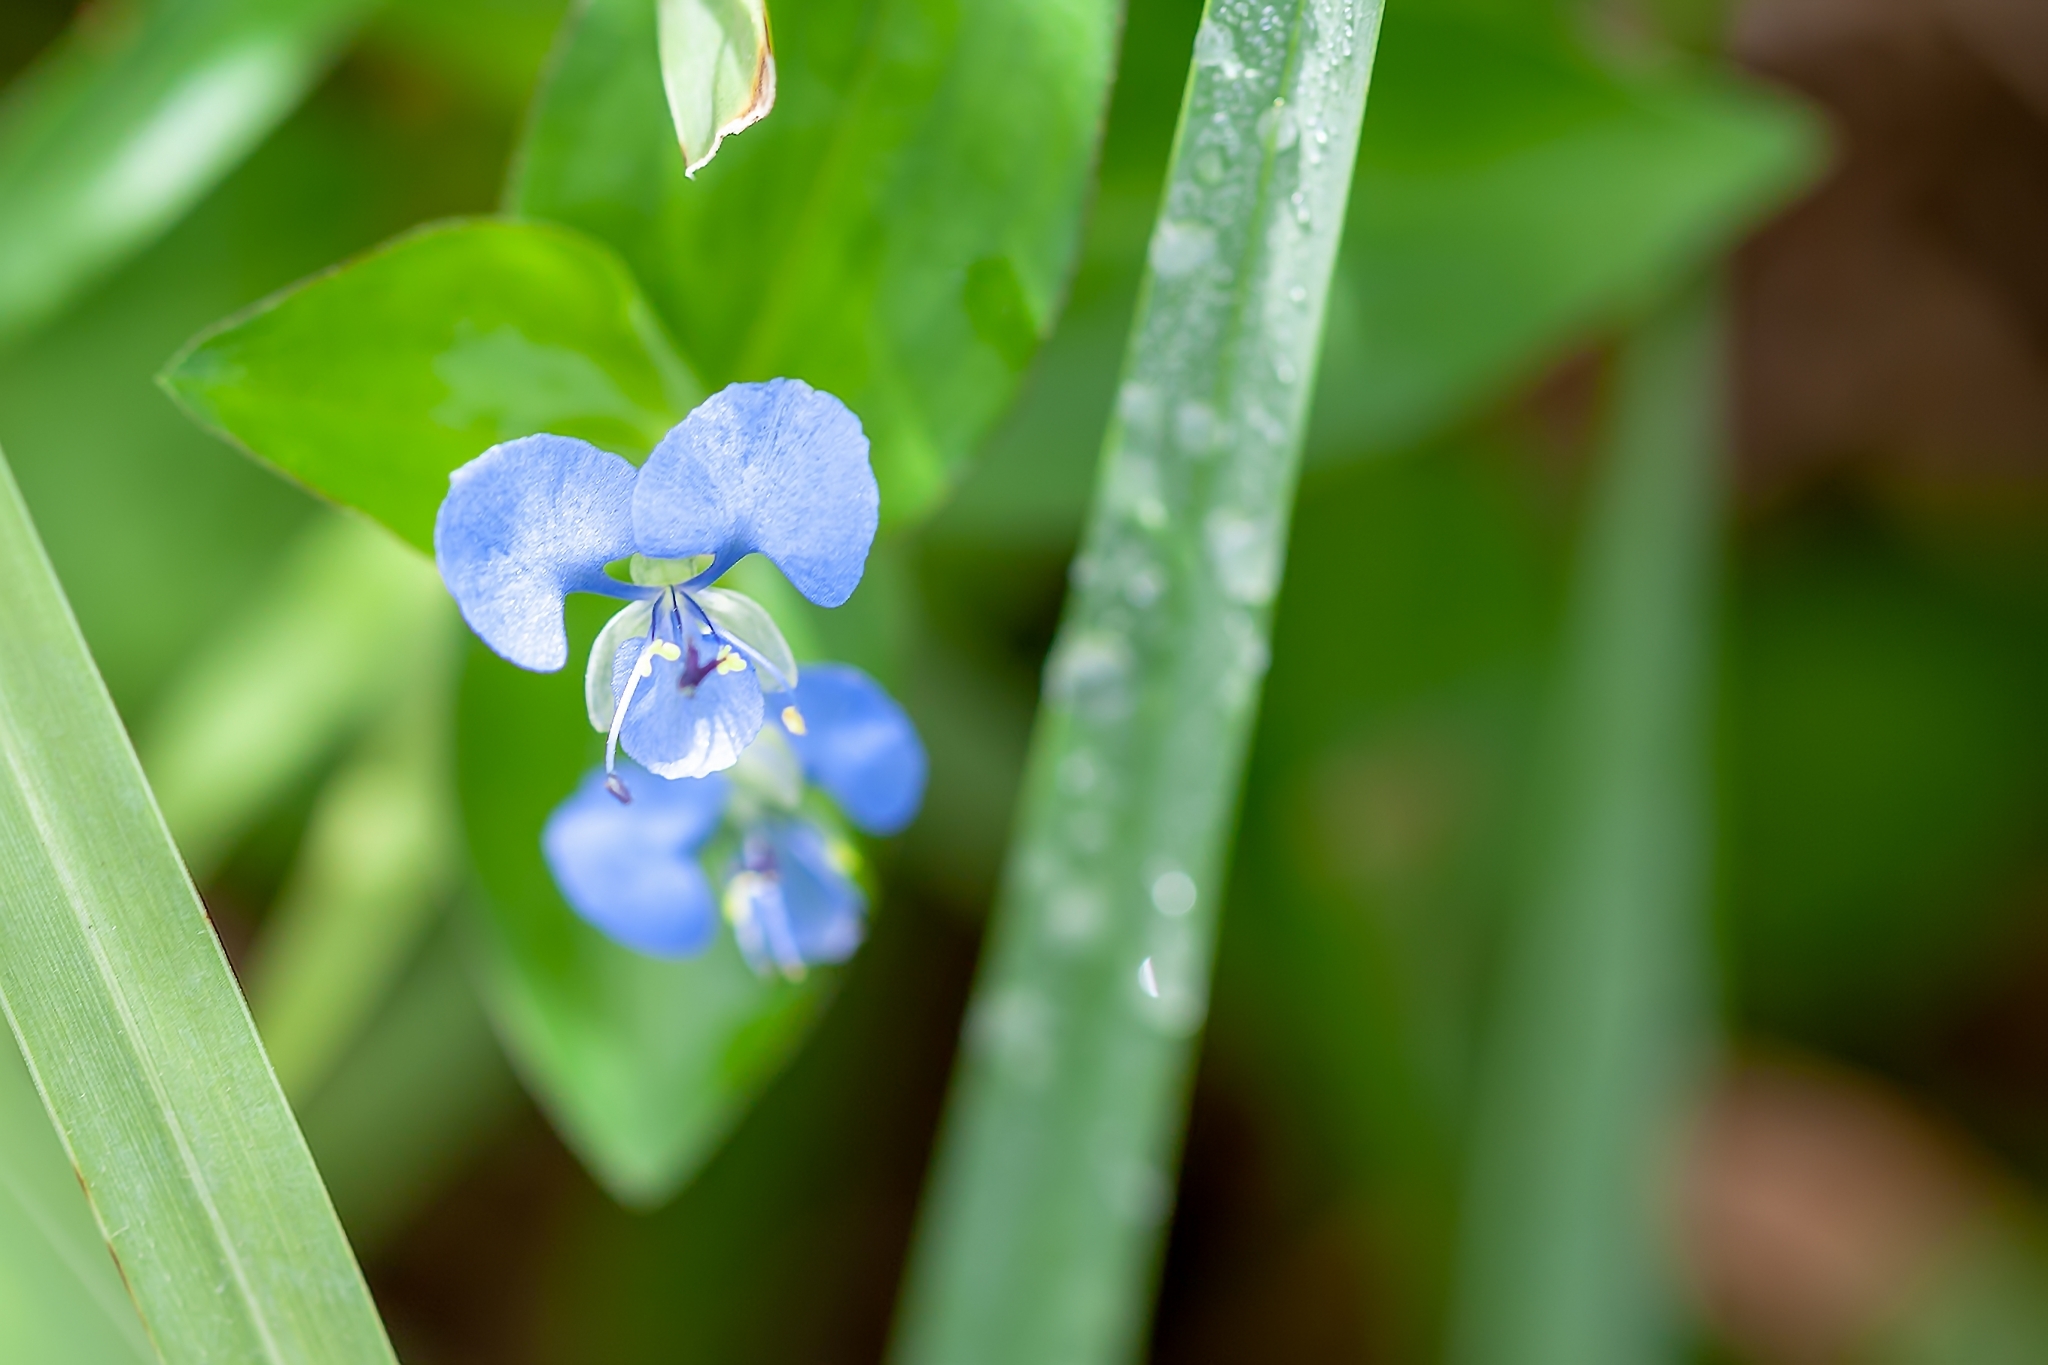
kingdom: Plantae
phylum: Tracheophyta
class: Liliopsida
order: Commelinales
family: Commelinaceae
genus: Commelina
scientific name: Commelina diffusa
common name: Climbing dayflower
